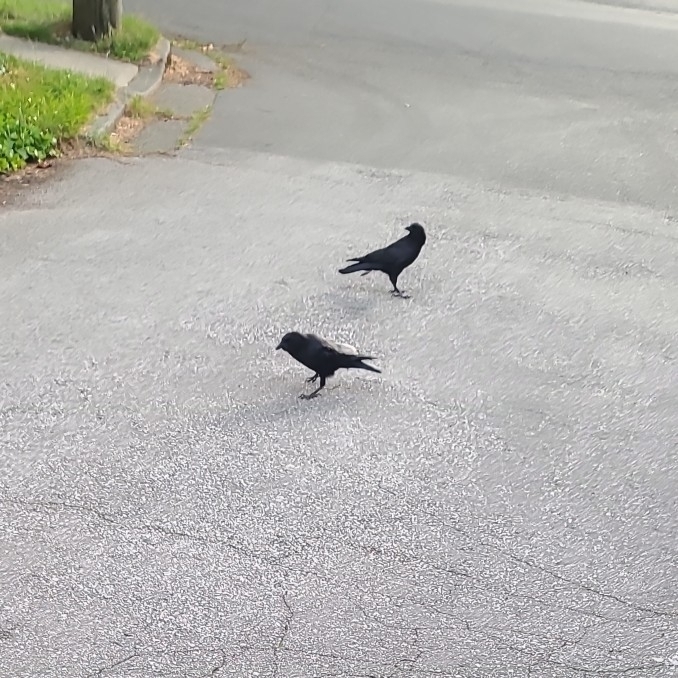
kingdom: Animalia
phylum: Chordata
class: Aves
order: Passeriformes
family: Corvidae
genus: Corvus
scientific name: Corvus brachyrhynchos
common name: American crow
